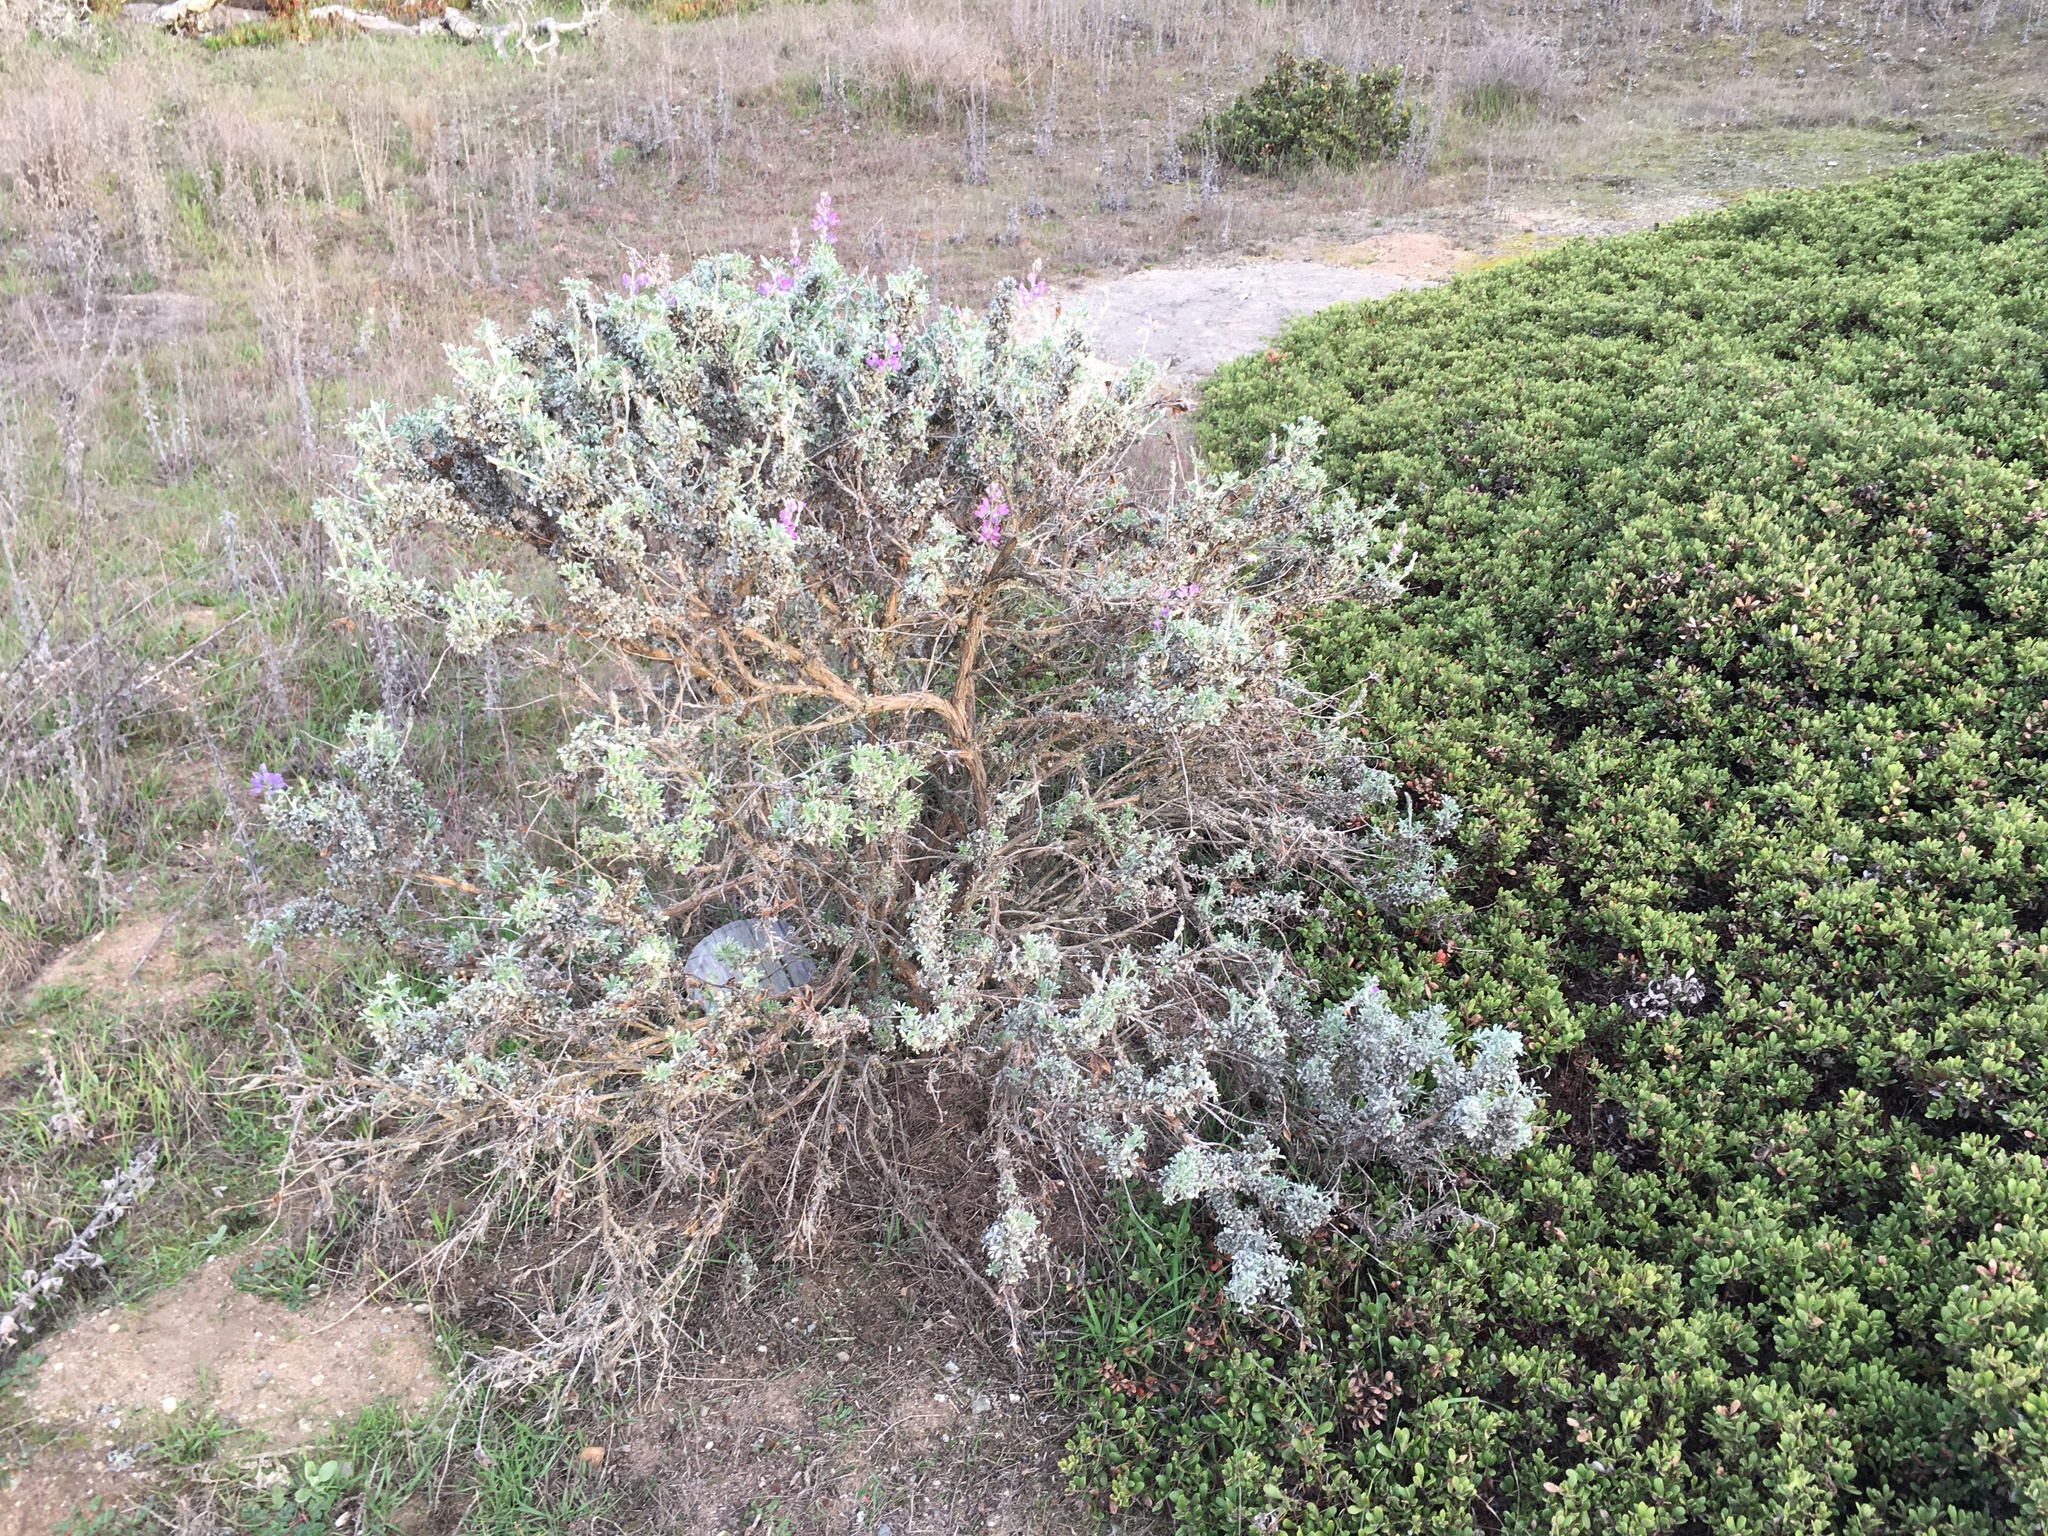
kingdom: Plantae
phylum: Tracheophyta
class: Magnoliopsida
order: Fabales
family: Fabaceae
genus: Lupinus
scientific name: Lupinus chamissonis
